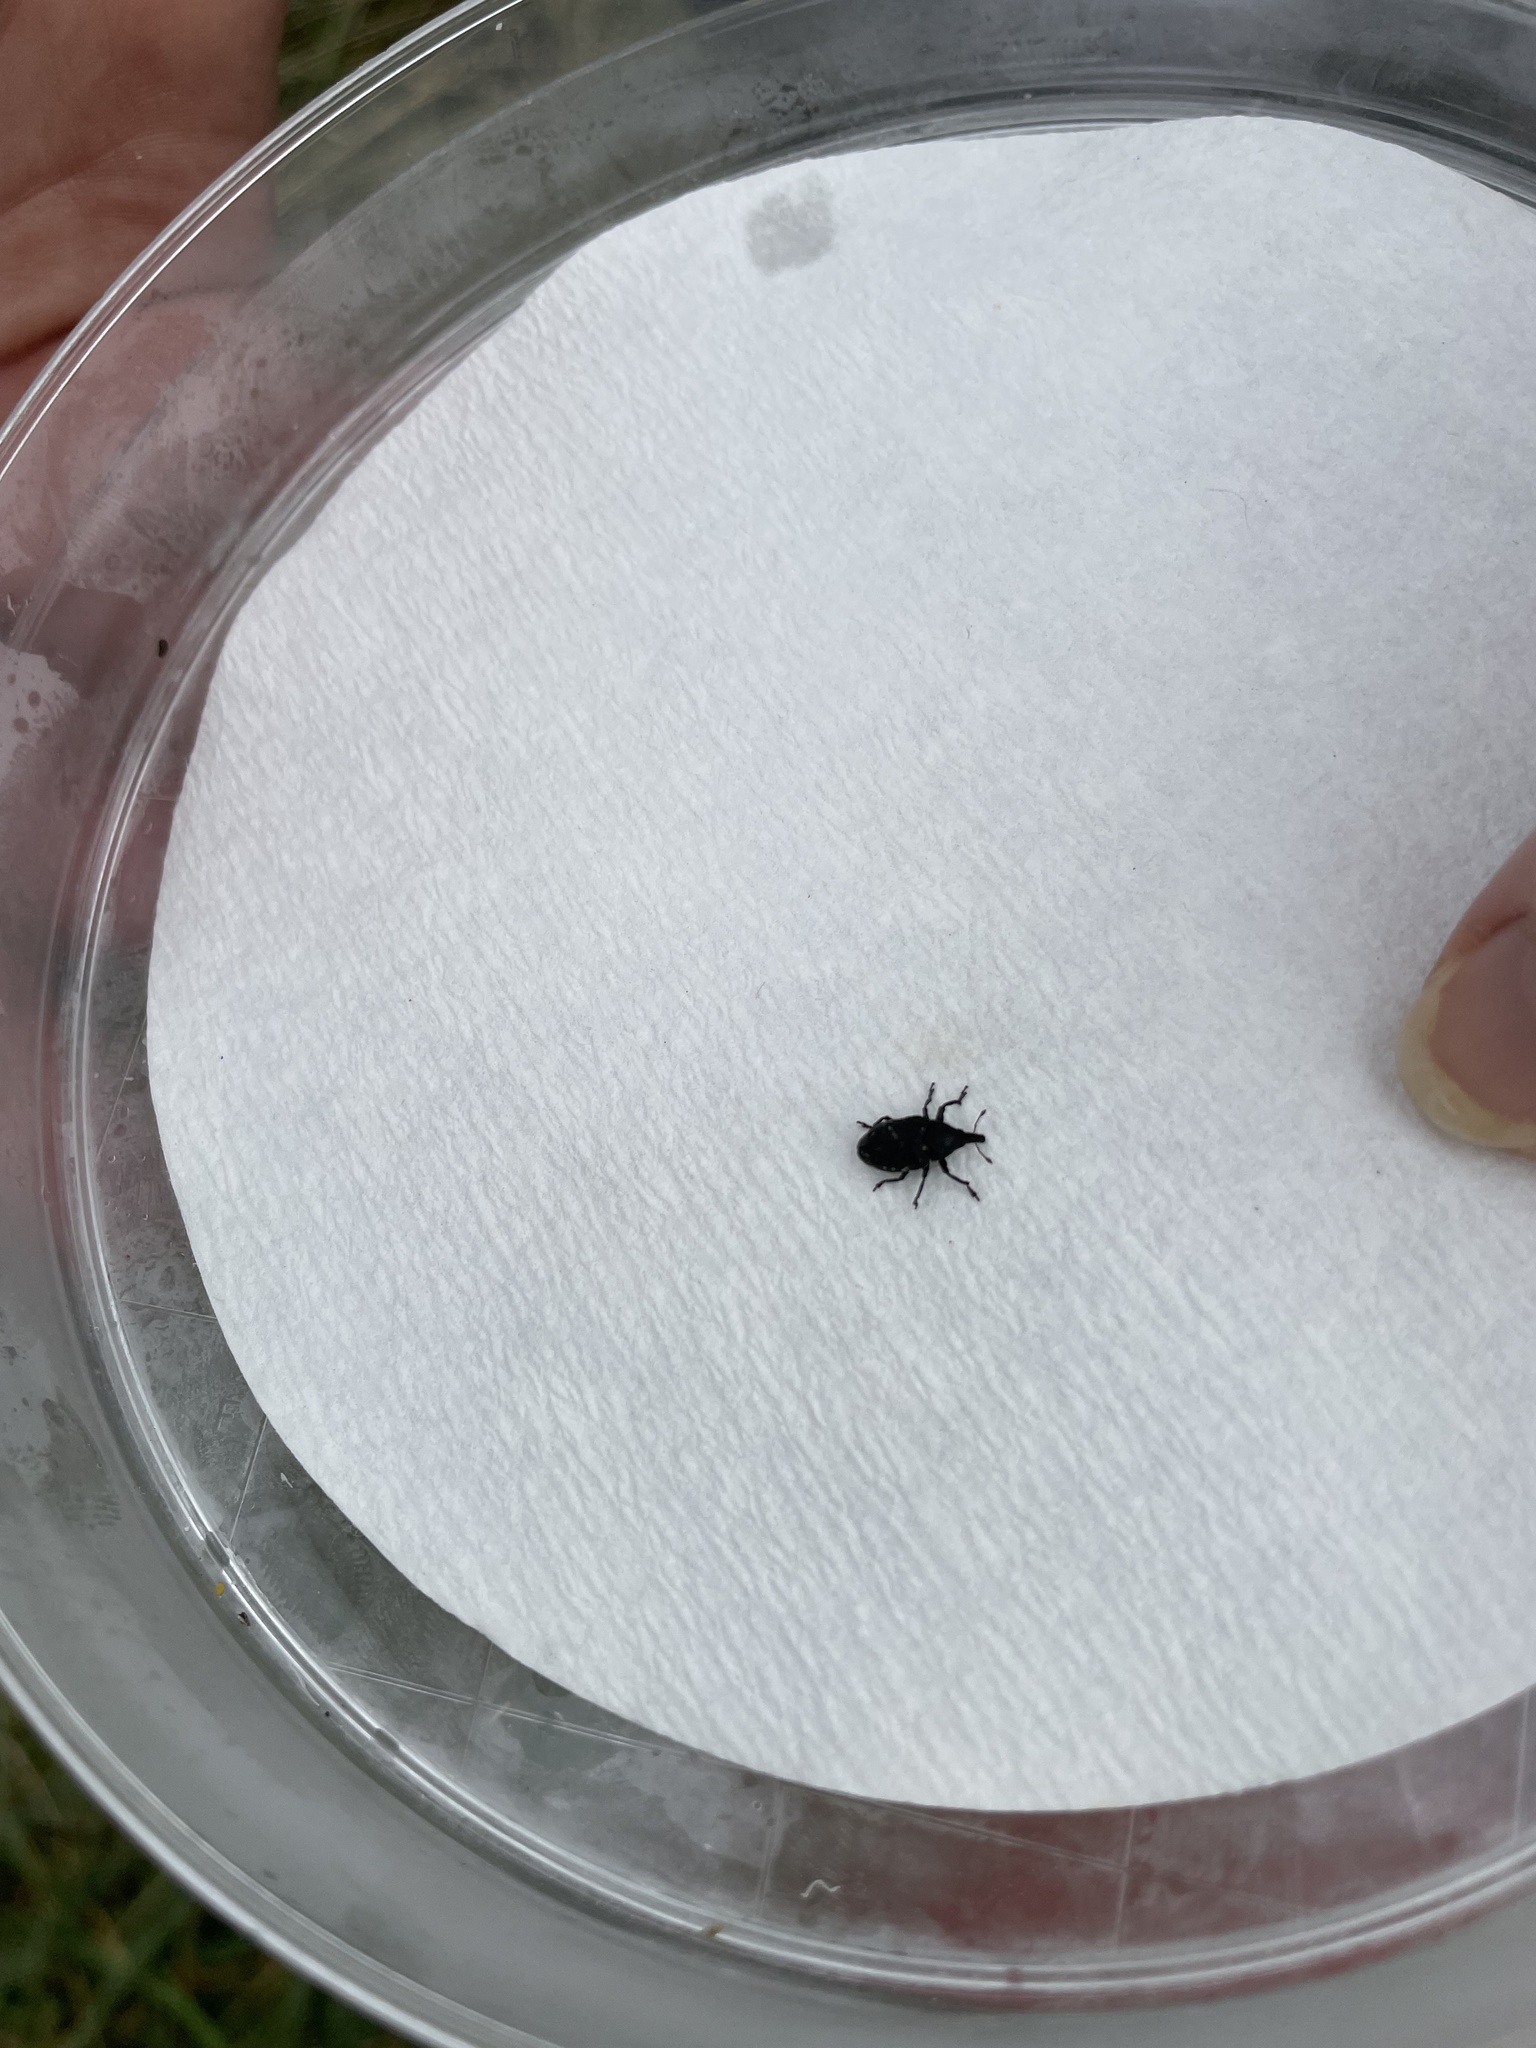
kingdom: Animalia
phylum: Arthropoda
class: Insecta
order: Coleoptera
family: Curculionidae
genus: Larinus
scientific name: Larinus turbinatus
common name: Weevil
